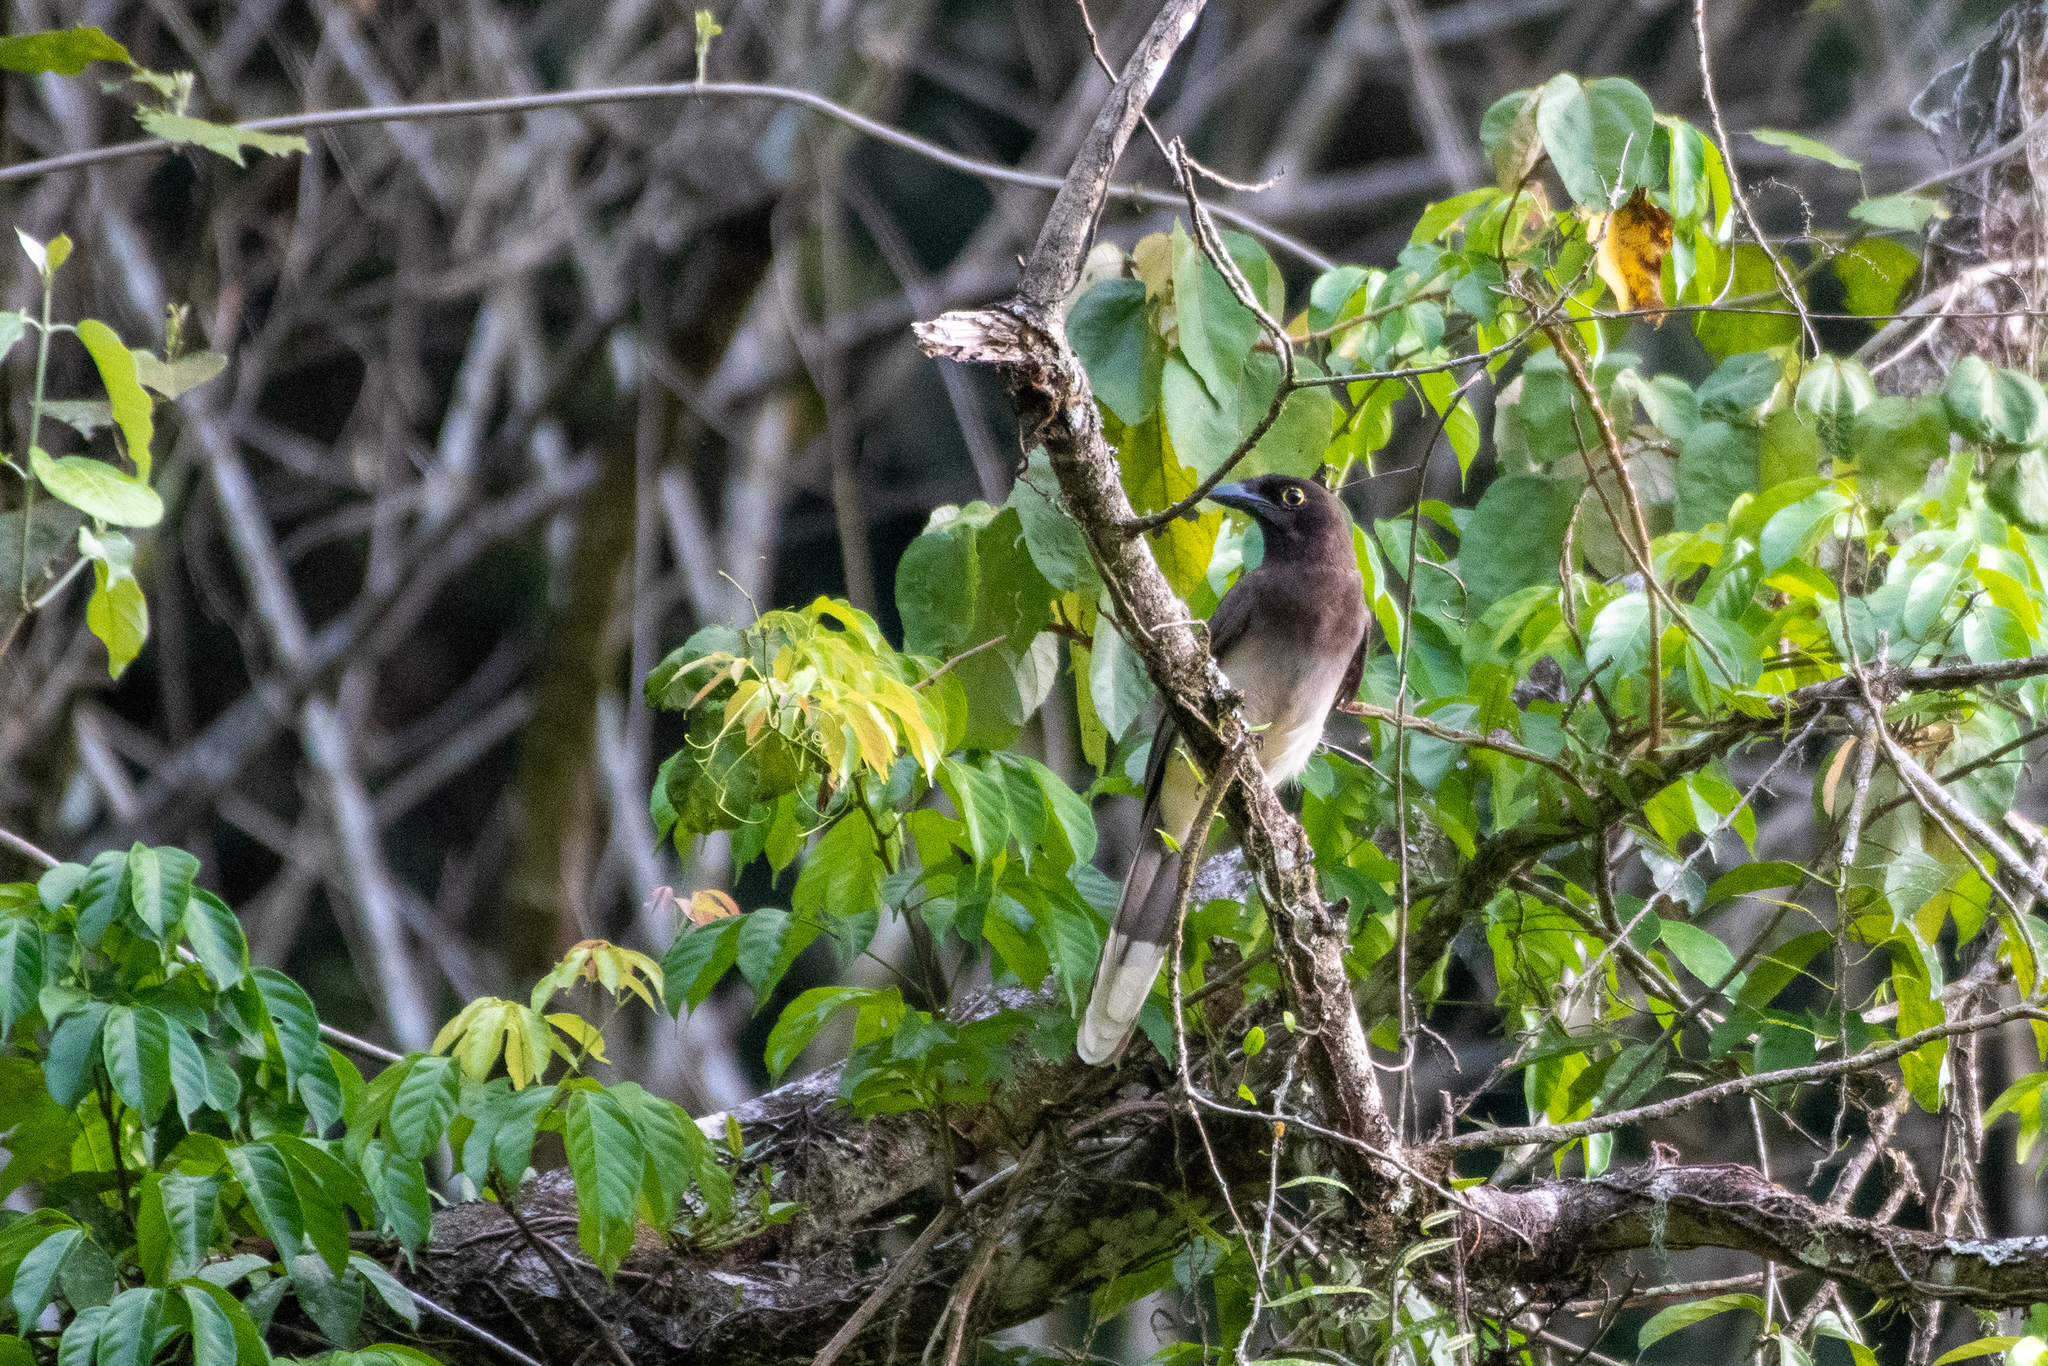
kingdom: Animalia
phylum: Chordata
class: Aves
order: Passeriformes
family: Corvidae
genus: Psilorhinus
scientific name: Psilorhinus morio
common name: Brown jay
